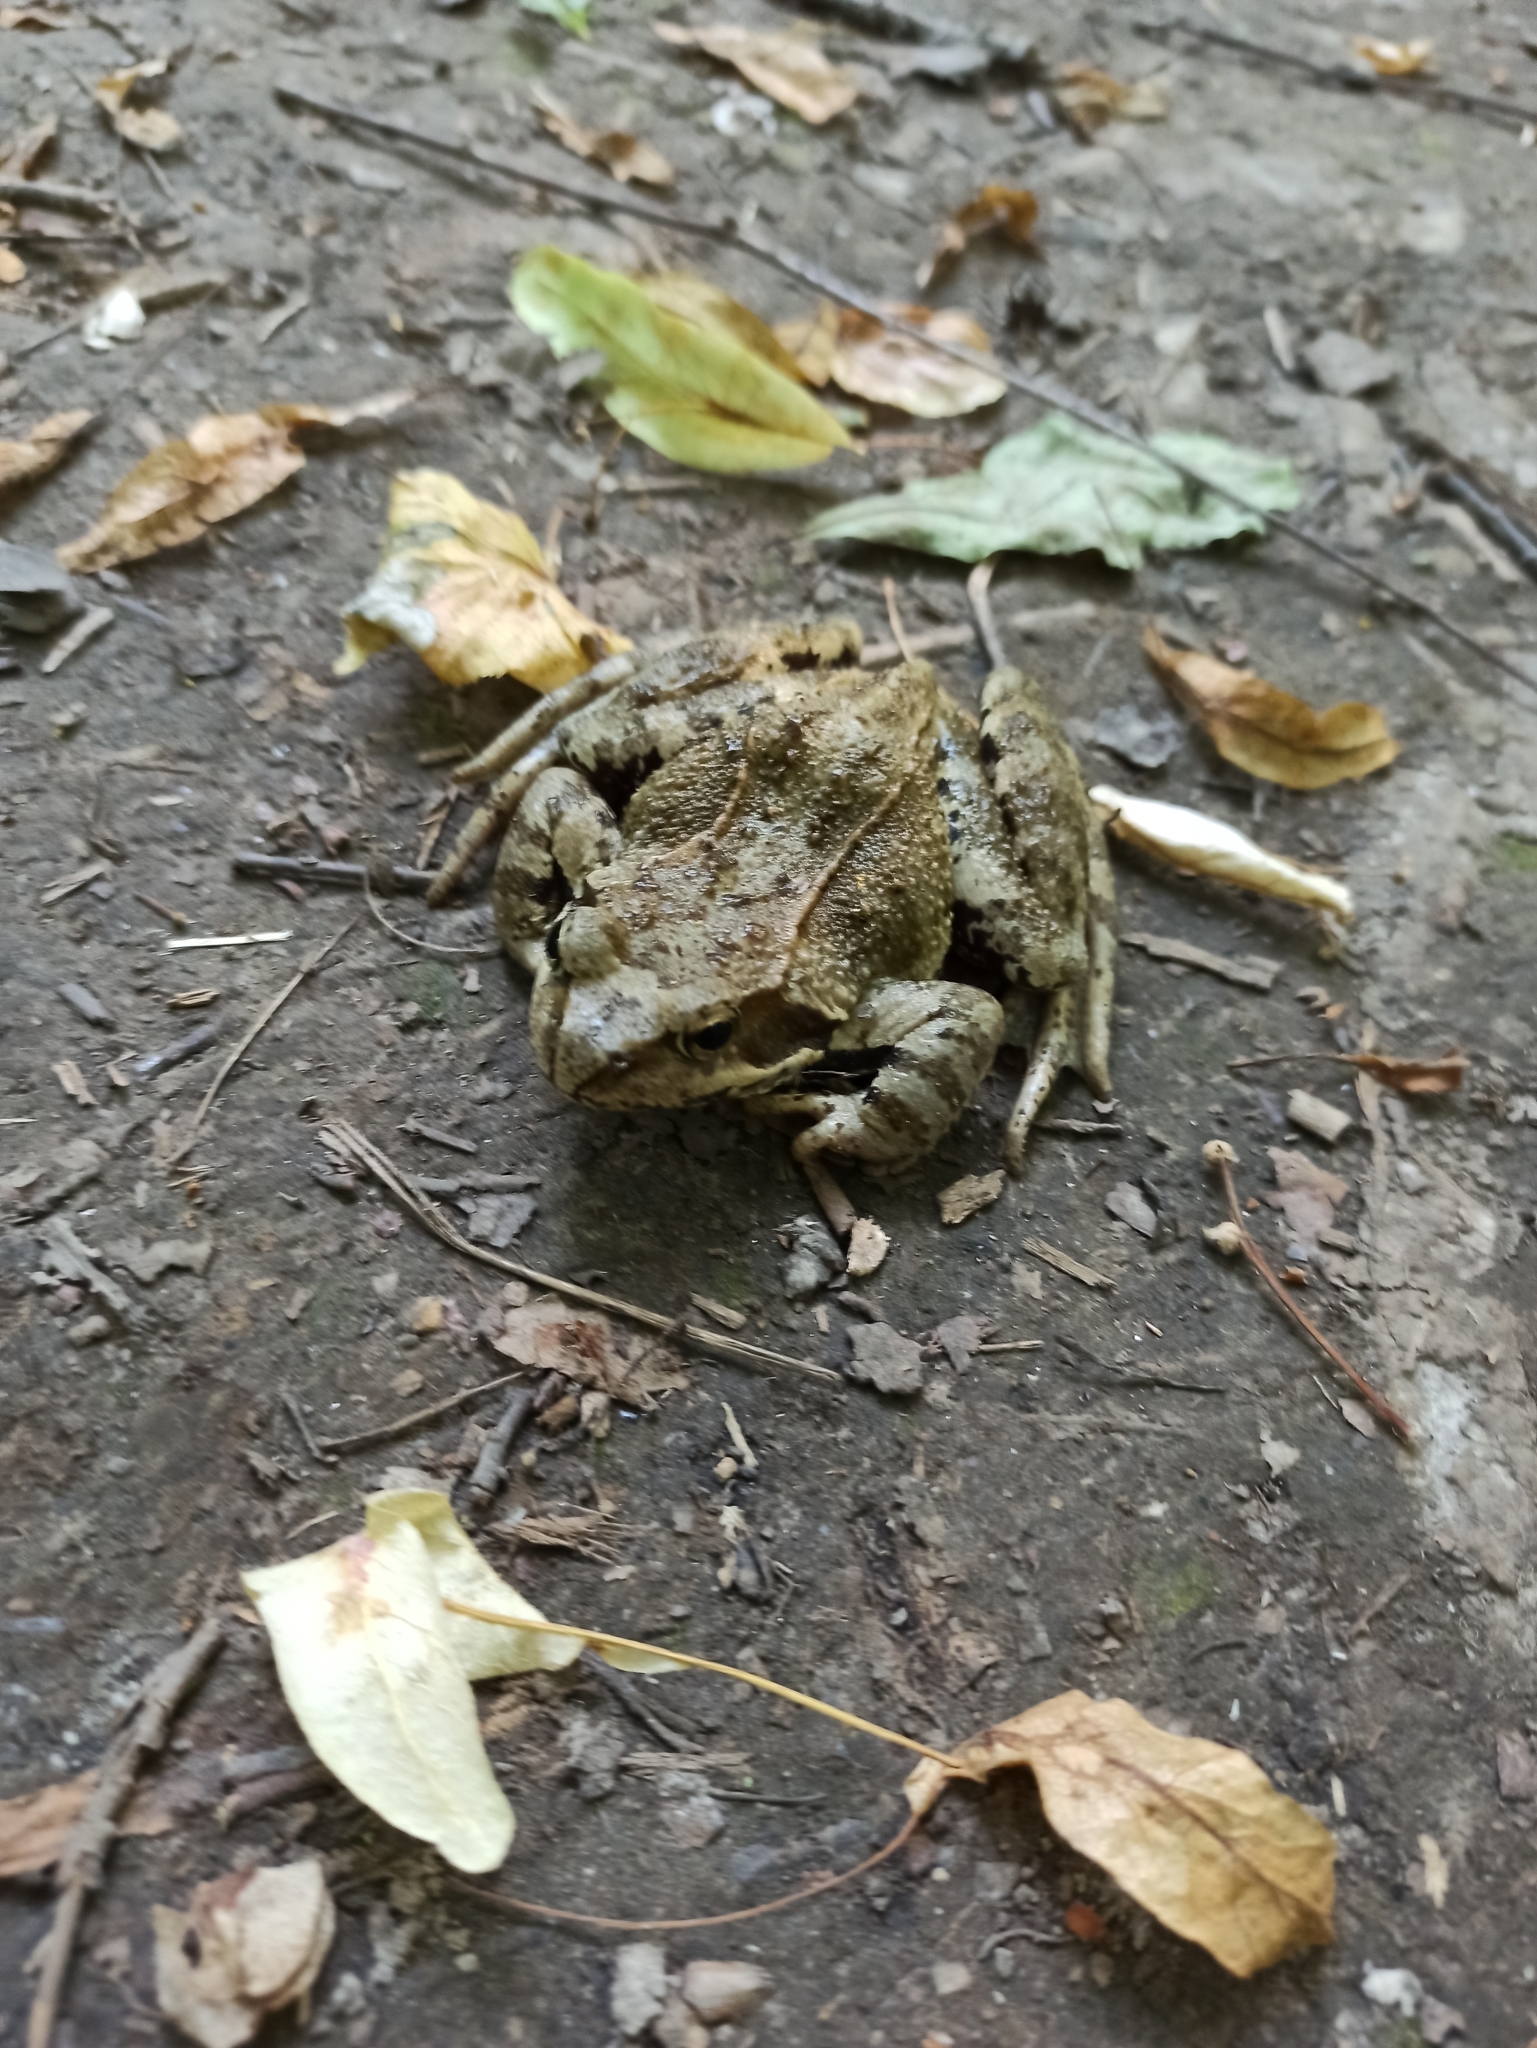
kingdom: Animalia
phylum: Chordata
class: Amphibia
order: Anura
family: Ranidae
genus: Rana
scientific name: Rana temporaria
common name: Common frog
